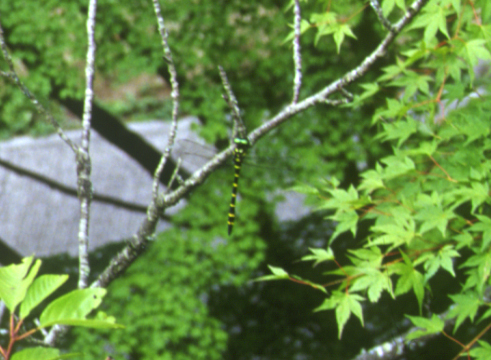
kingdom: Animalia
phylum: Arthropoda
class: Insecta
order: Odonata
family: Cordulegastridae
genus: Anotogaster
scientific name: Anotogaster sieboldii
